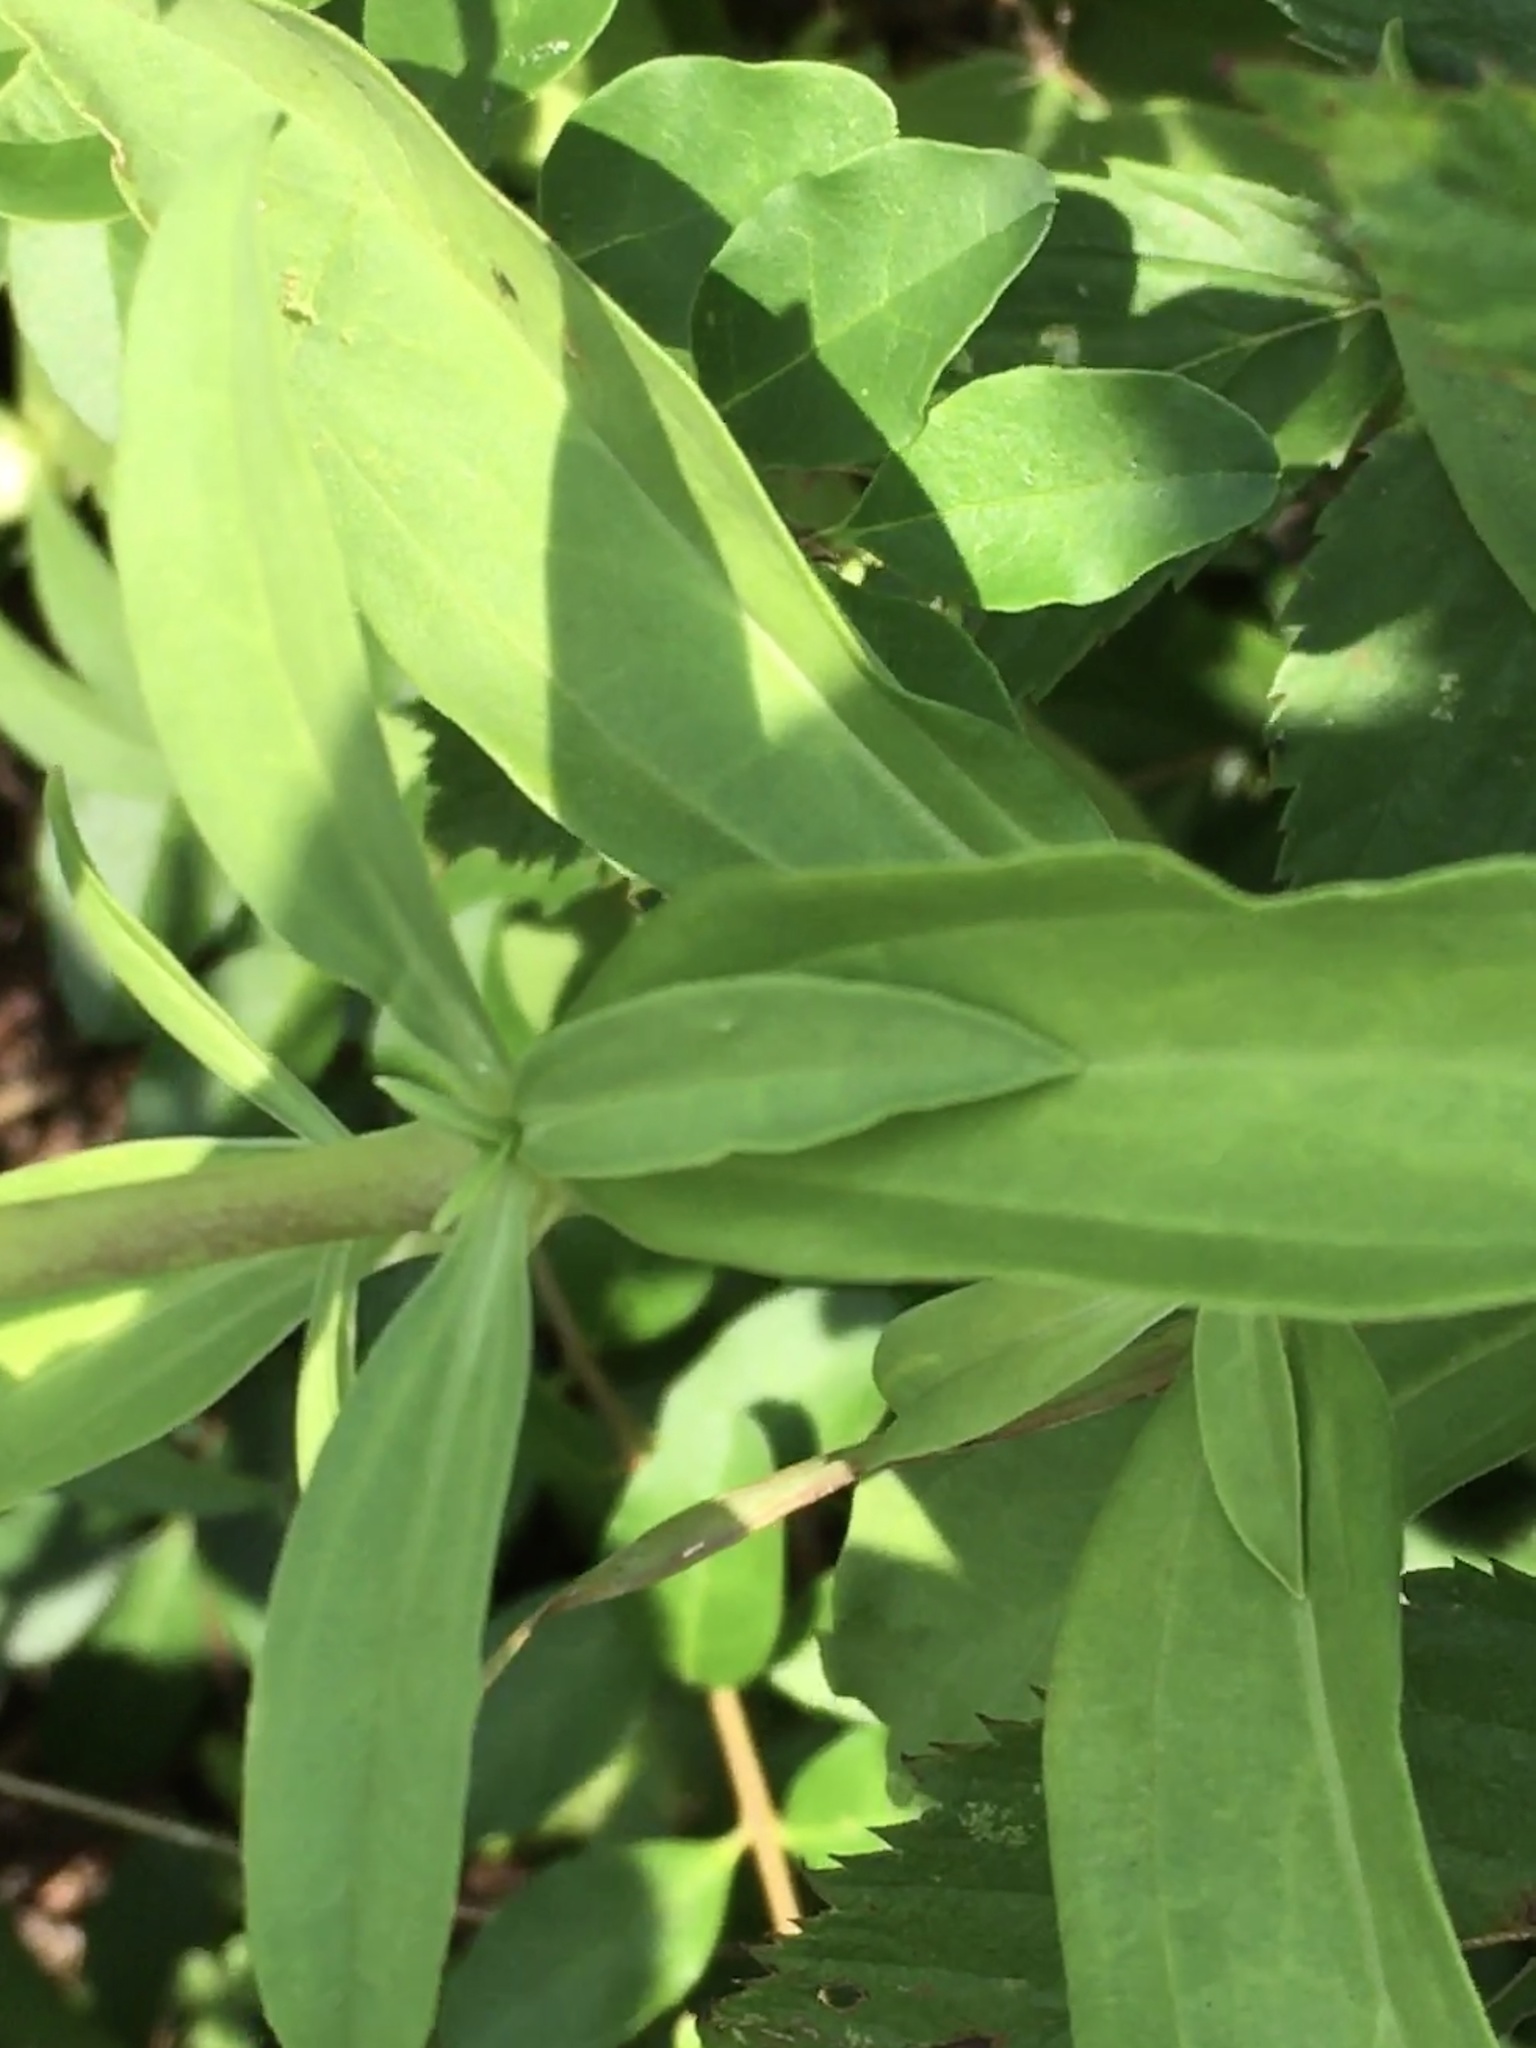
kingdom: Plantae
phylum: Tracheophyta
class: Magnoliopsida
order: Caryophyllales
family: Caryophyllaceae
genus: Saponaria
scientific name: Saponaria officinalis
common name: Soapwort
